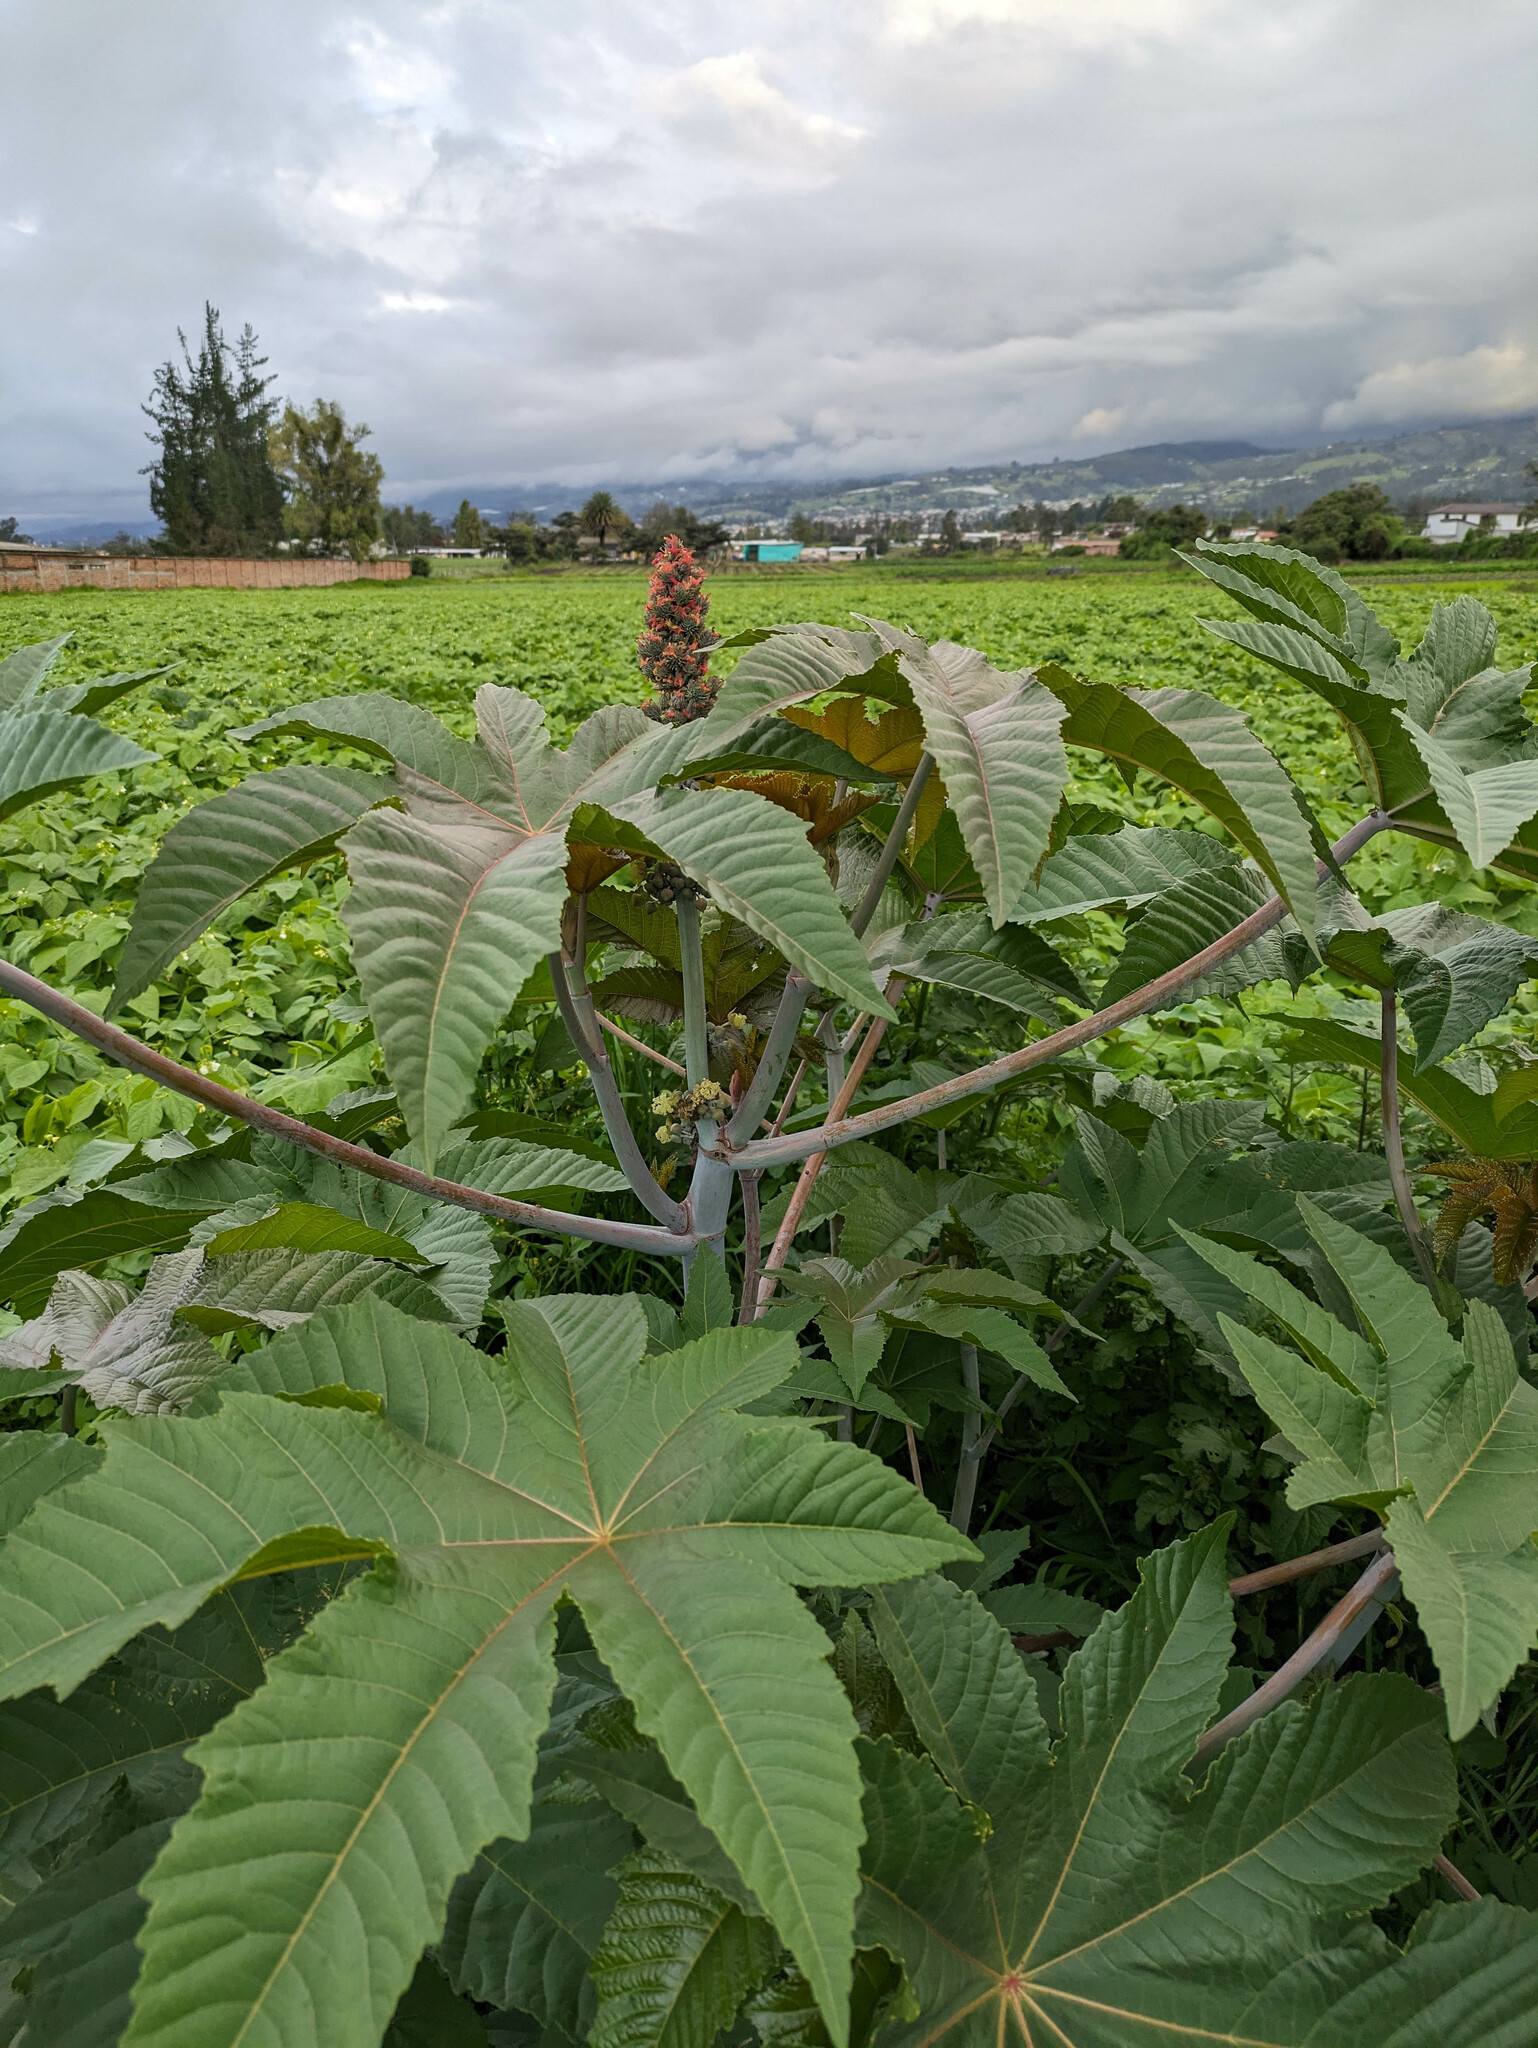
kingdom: Plantae
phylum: Tracheophyta
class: Magnoliopsida
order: Malpighiales
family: Euphorbiaceae
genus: Ricinus
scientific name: Ricinus communis
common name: Castor-oil-plant
